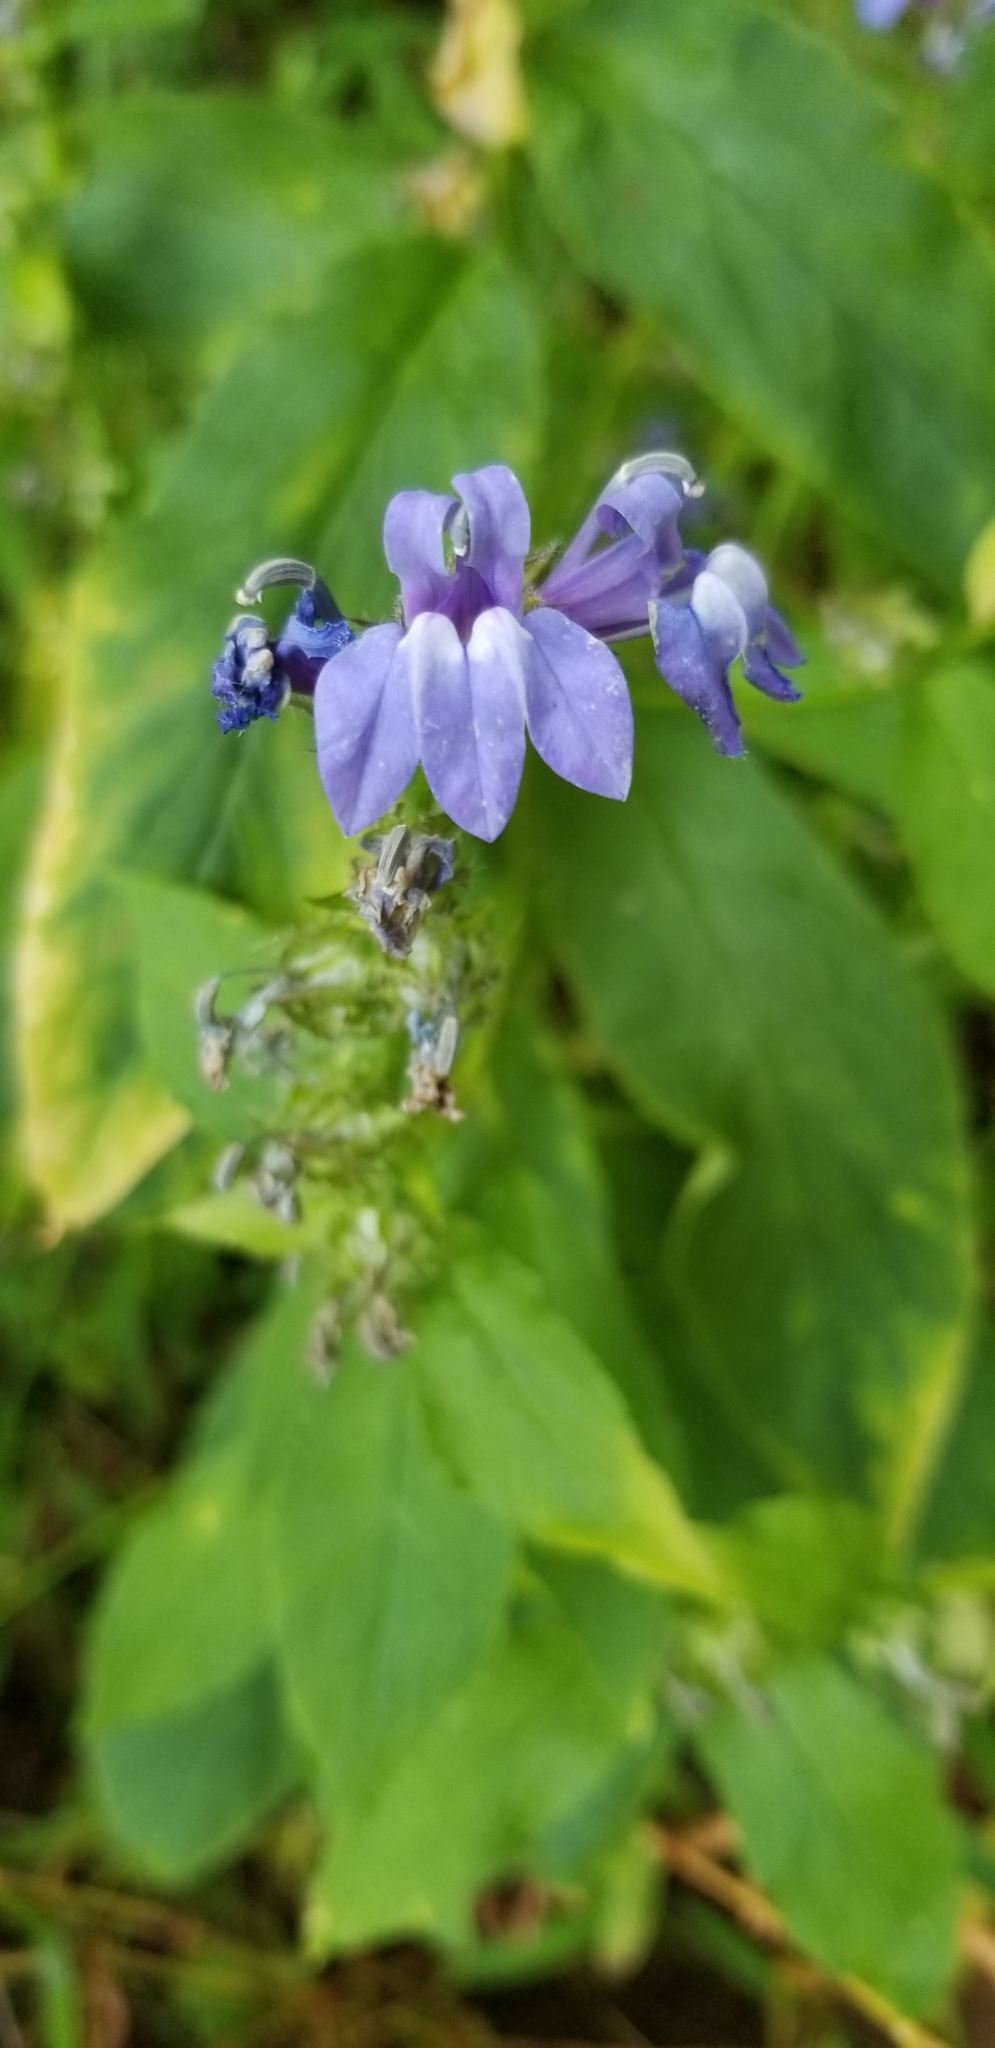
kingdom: Plantae
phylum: Tracheophyta
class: Magnoliopsida
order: Asterales
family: Campanulaceae
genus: Lobelia
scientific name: Lobelia siphilitica
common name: Great lobelia
